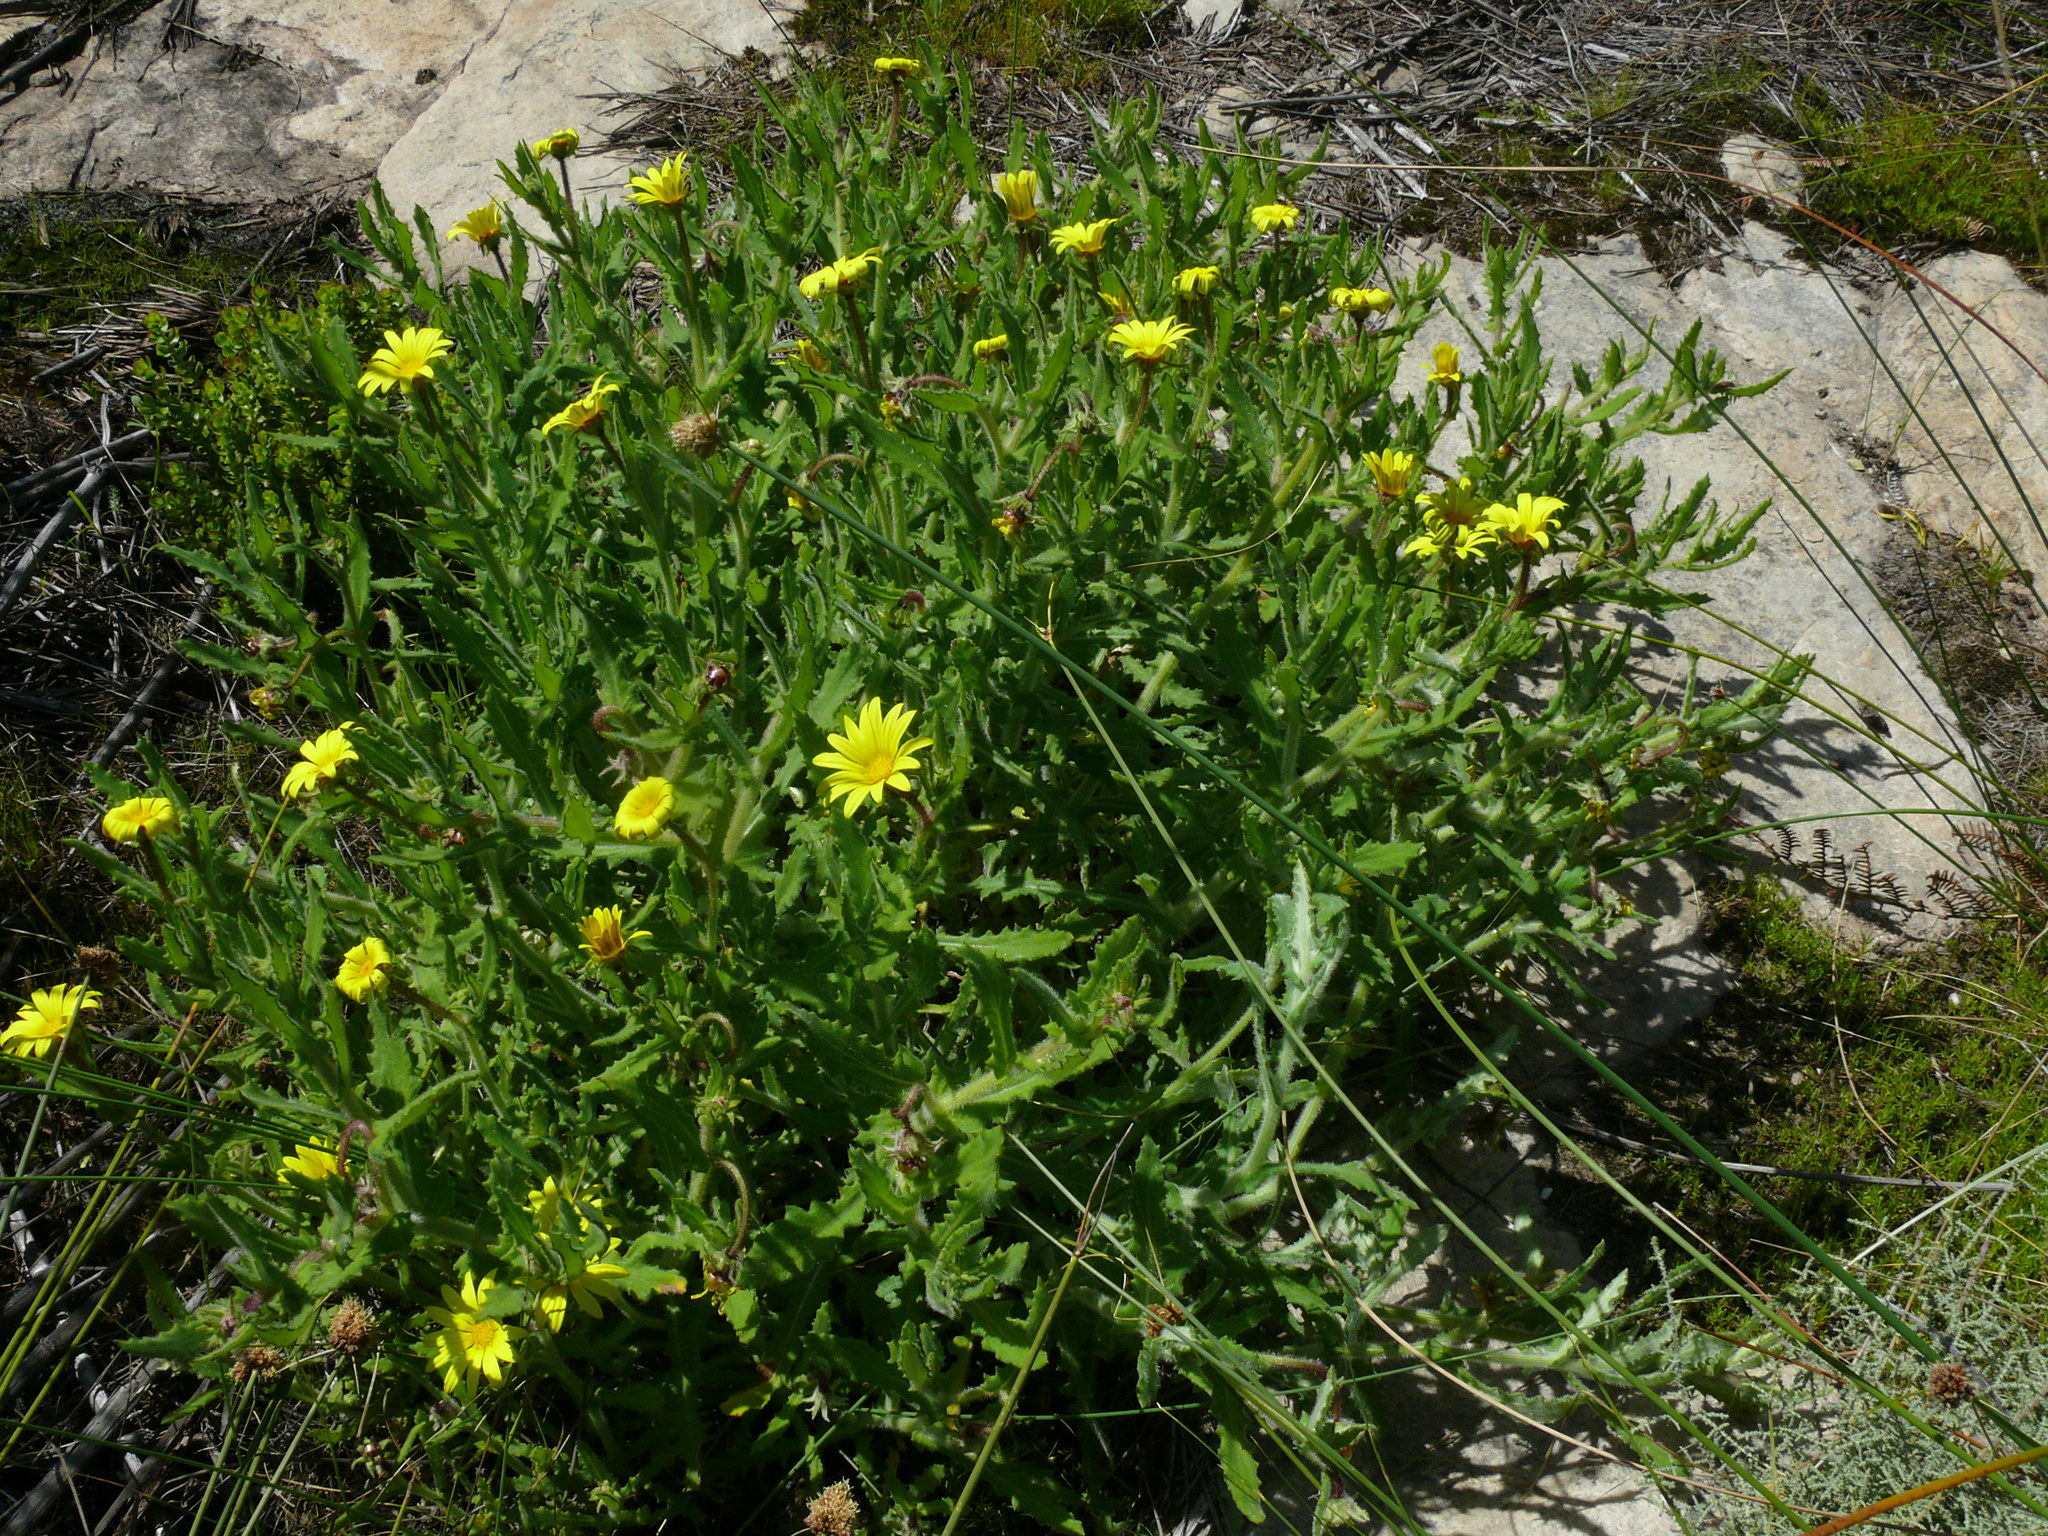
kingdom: Plantae
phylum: Tracheophyta
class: Magnoliopsida
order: Asterales
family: Asteraceae
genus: Osteospermum
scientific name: Osteospermum rigidum
